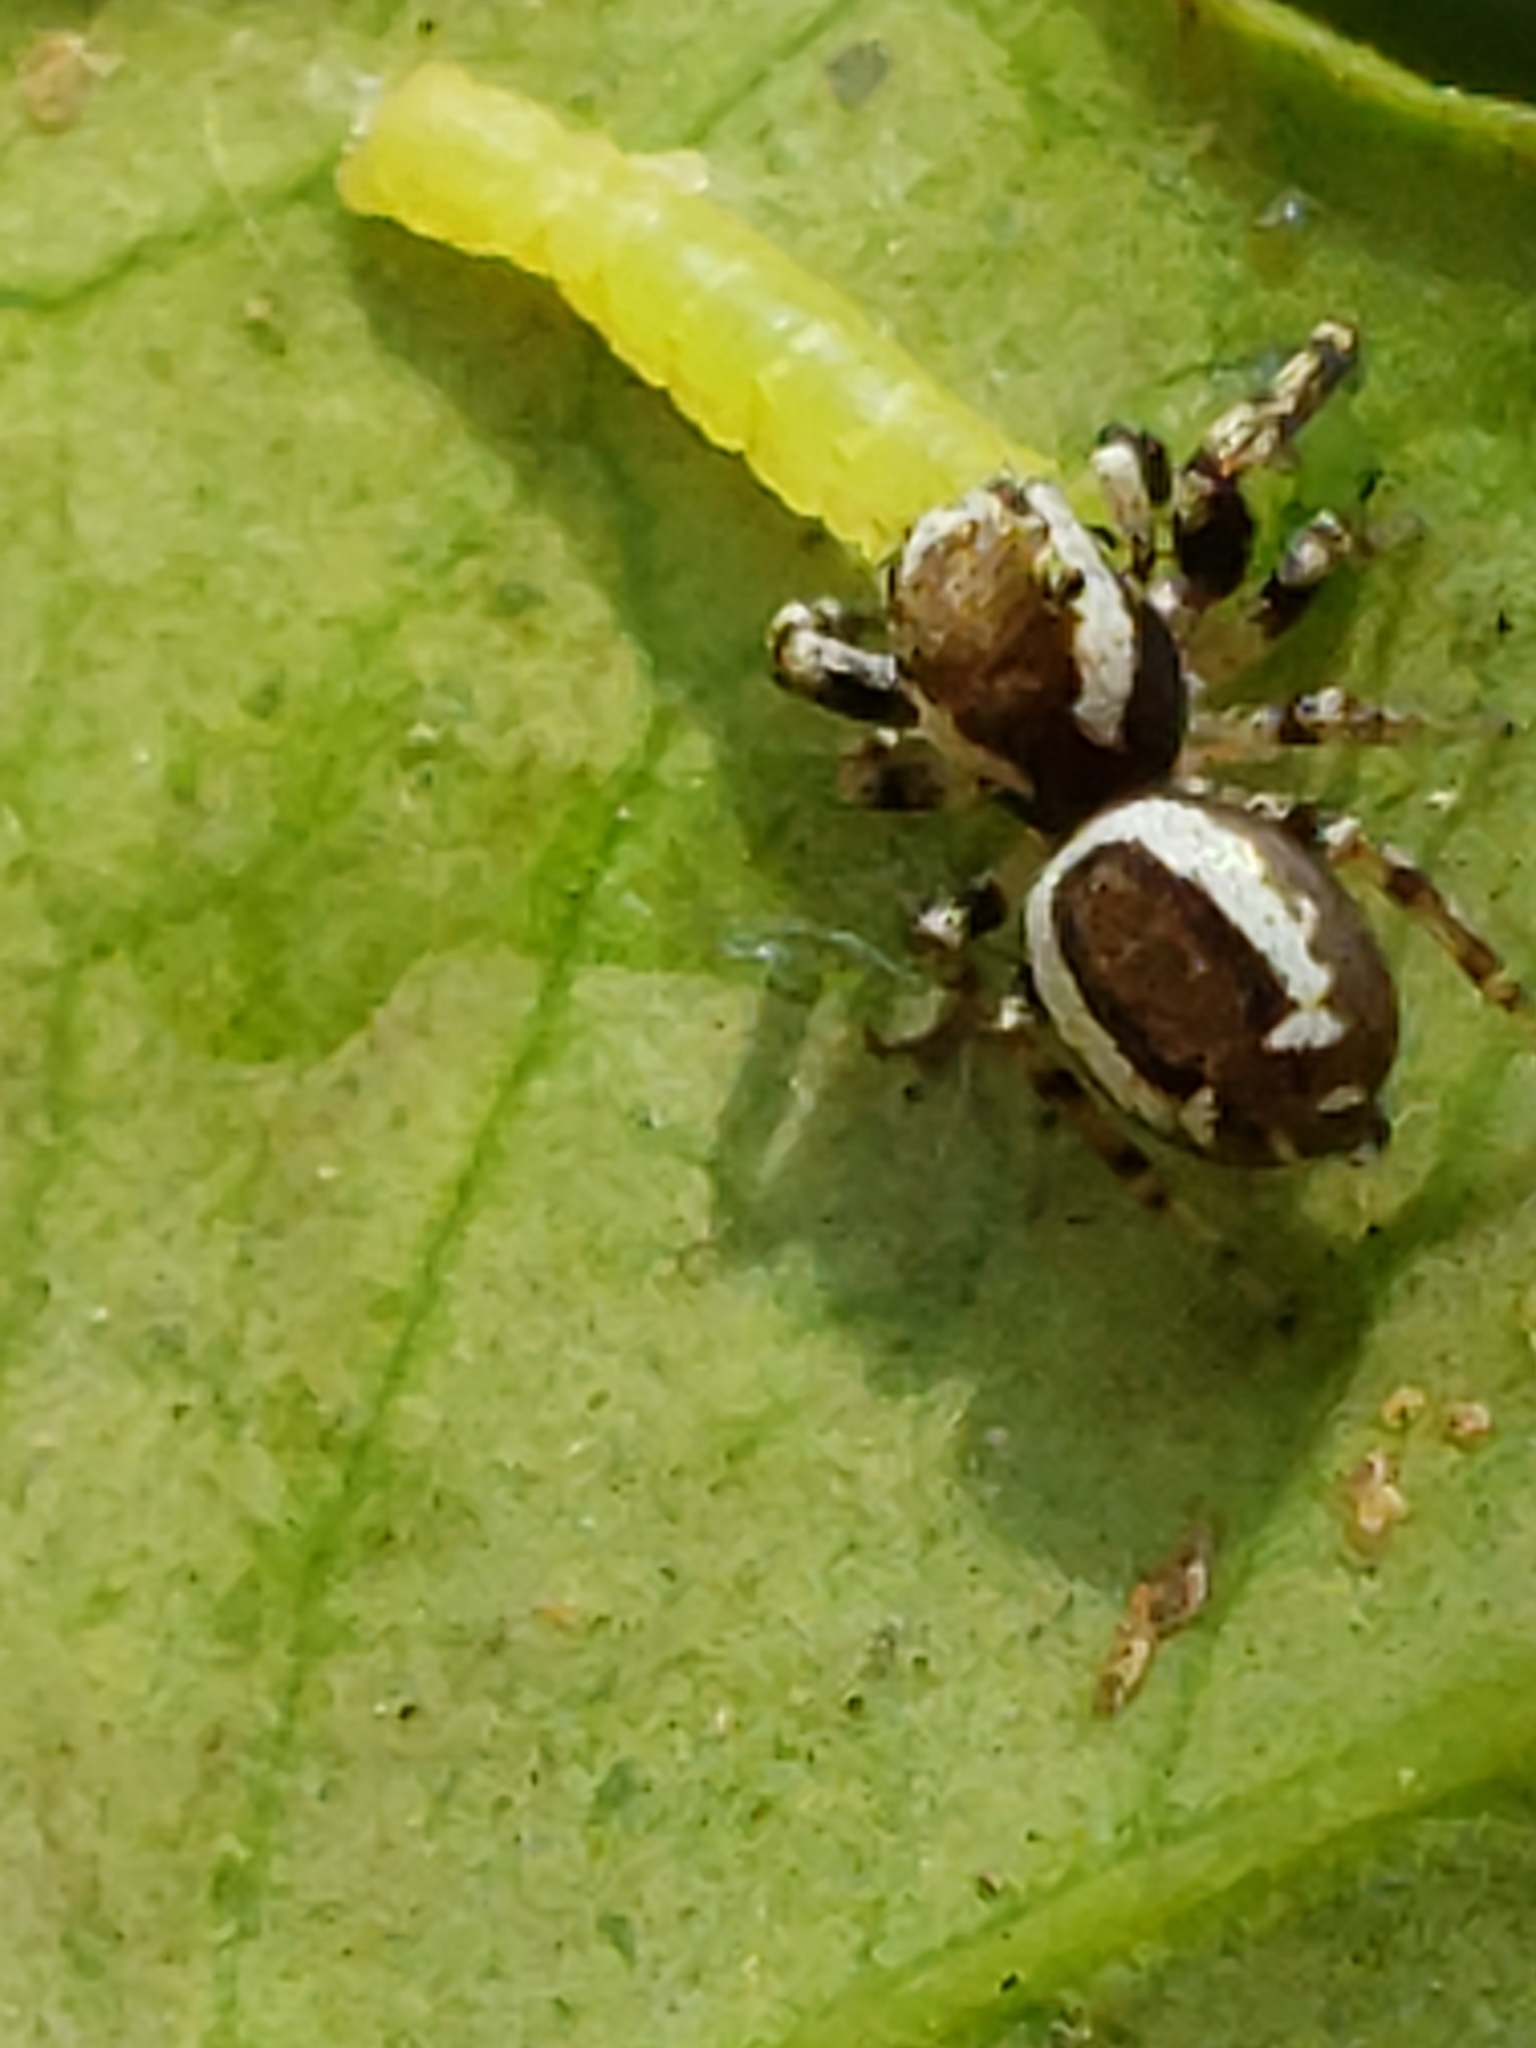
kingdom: Animalia
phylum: Arthropoda
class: Arachnida
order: Araneae
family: Salticidae
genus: Pelegrina
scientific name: Pelegrina proterva
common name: Common white-cheeked jumping spider
